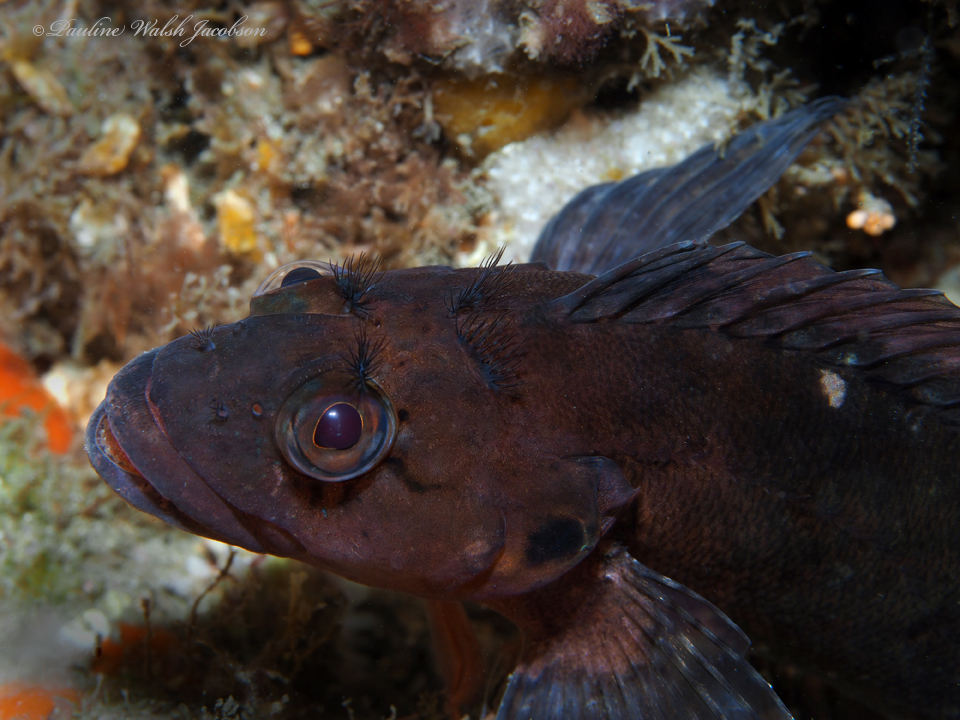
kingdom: Animalia
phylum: Chordata
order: Perciformes
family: Labrisomidae
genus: Labrisomus
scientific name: Labrisomus conditus
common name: Masquerader hairy blenny
